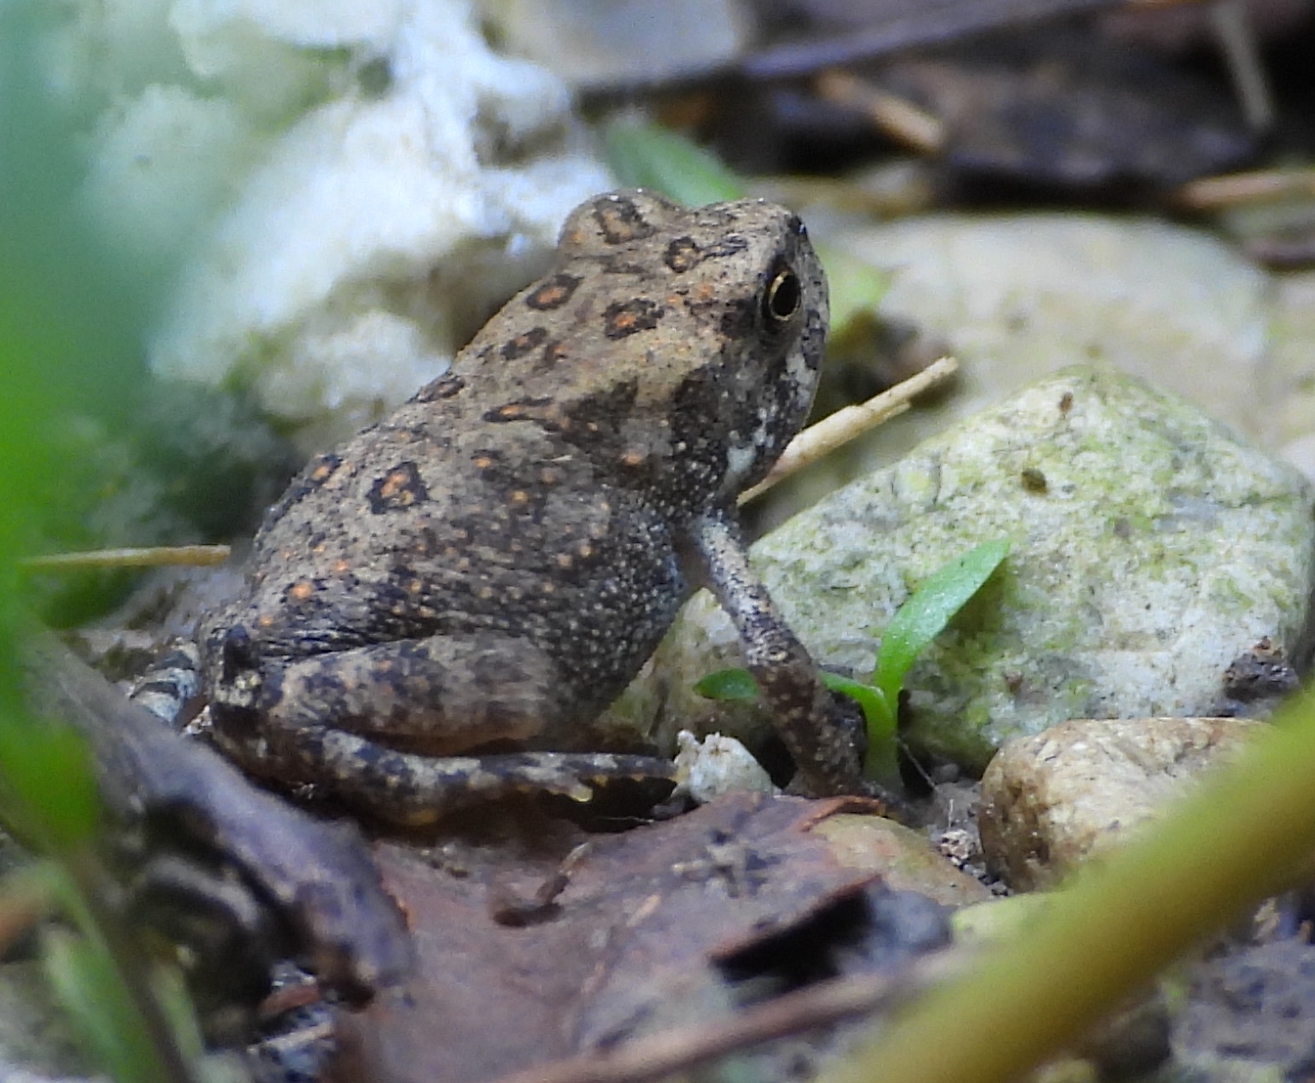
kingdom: Animalia
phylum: Chordata
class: Amphibia
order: Anura
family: Bufonidae
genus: Anaxyrus
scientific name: Anaxyrus americanus
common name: American toad
